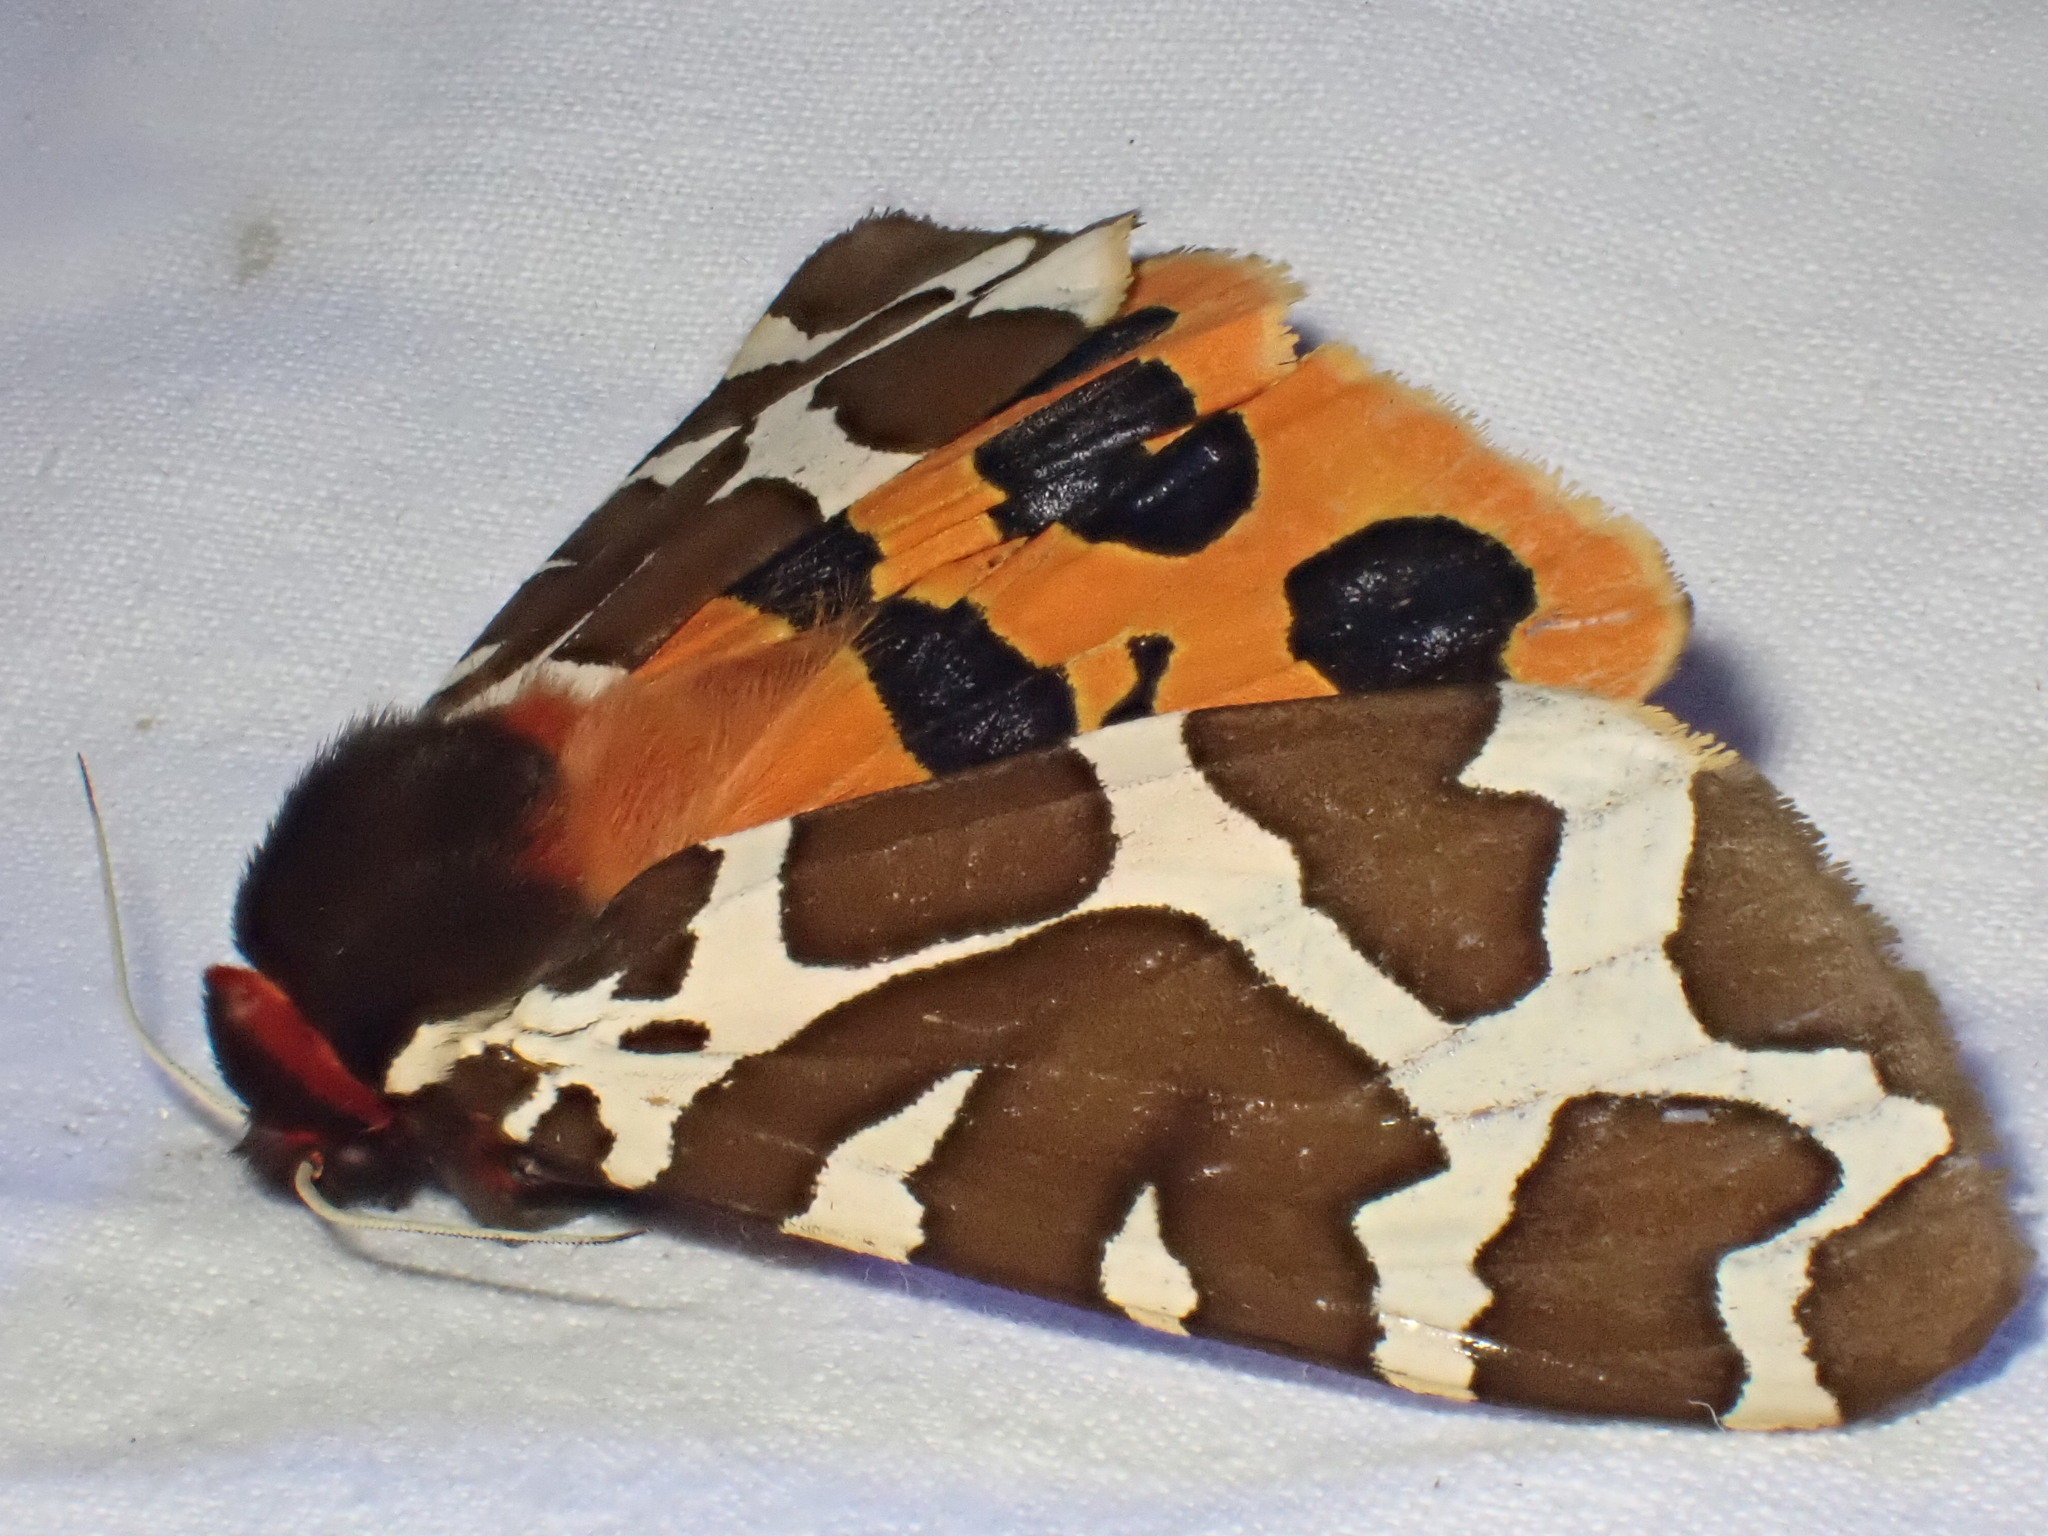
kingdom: Animalia
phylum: Arthropoda
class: Insecta
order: Lepidoptera
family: Erebidae
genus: Arctia
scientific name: Arctia caja
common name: Garden tiger
